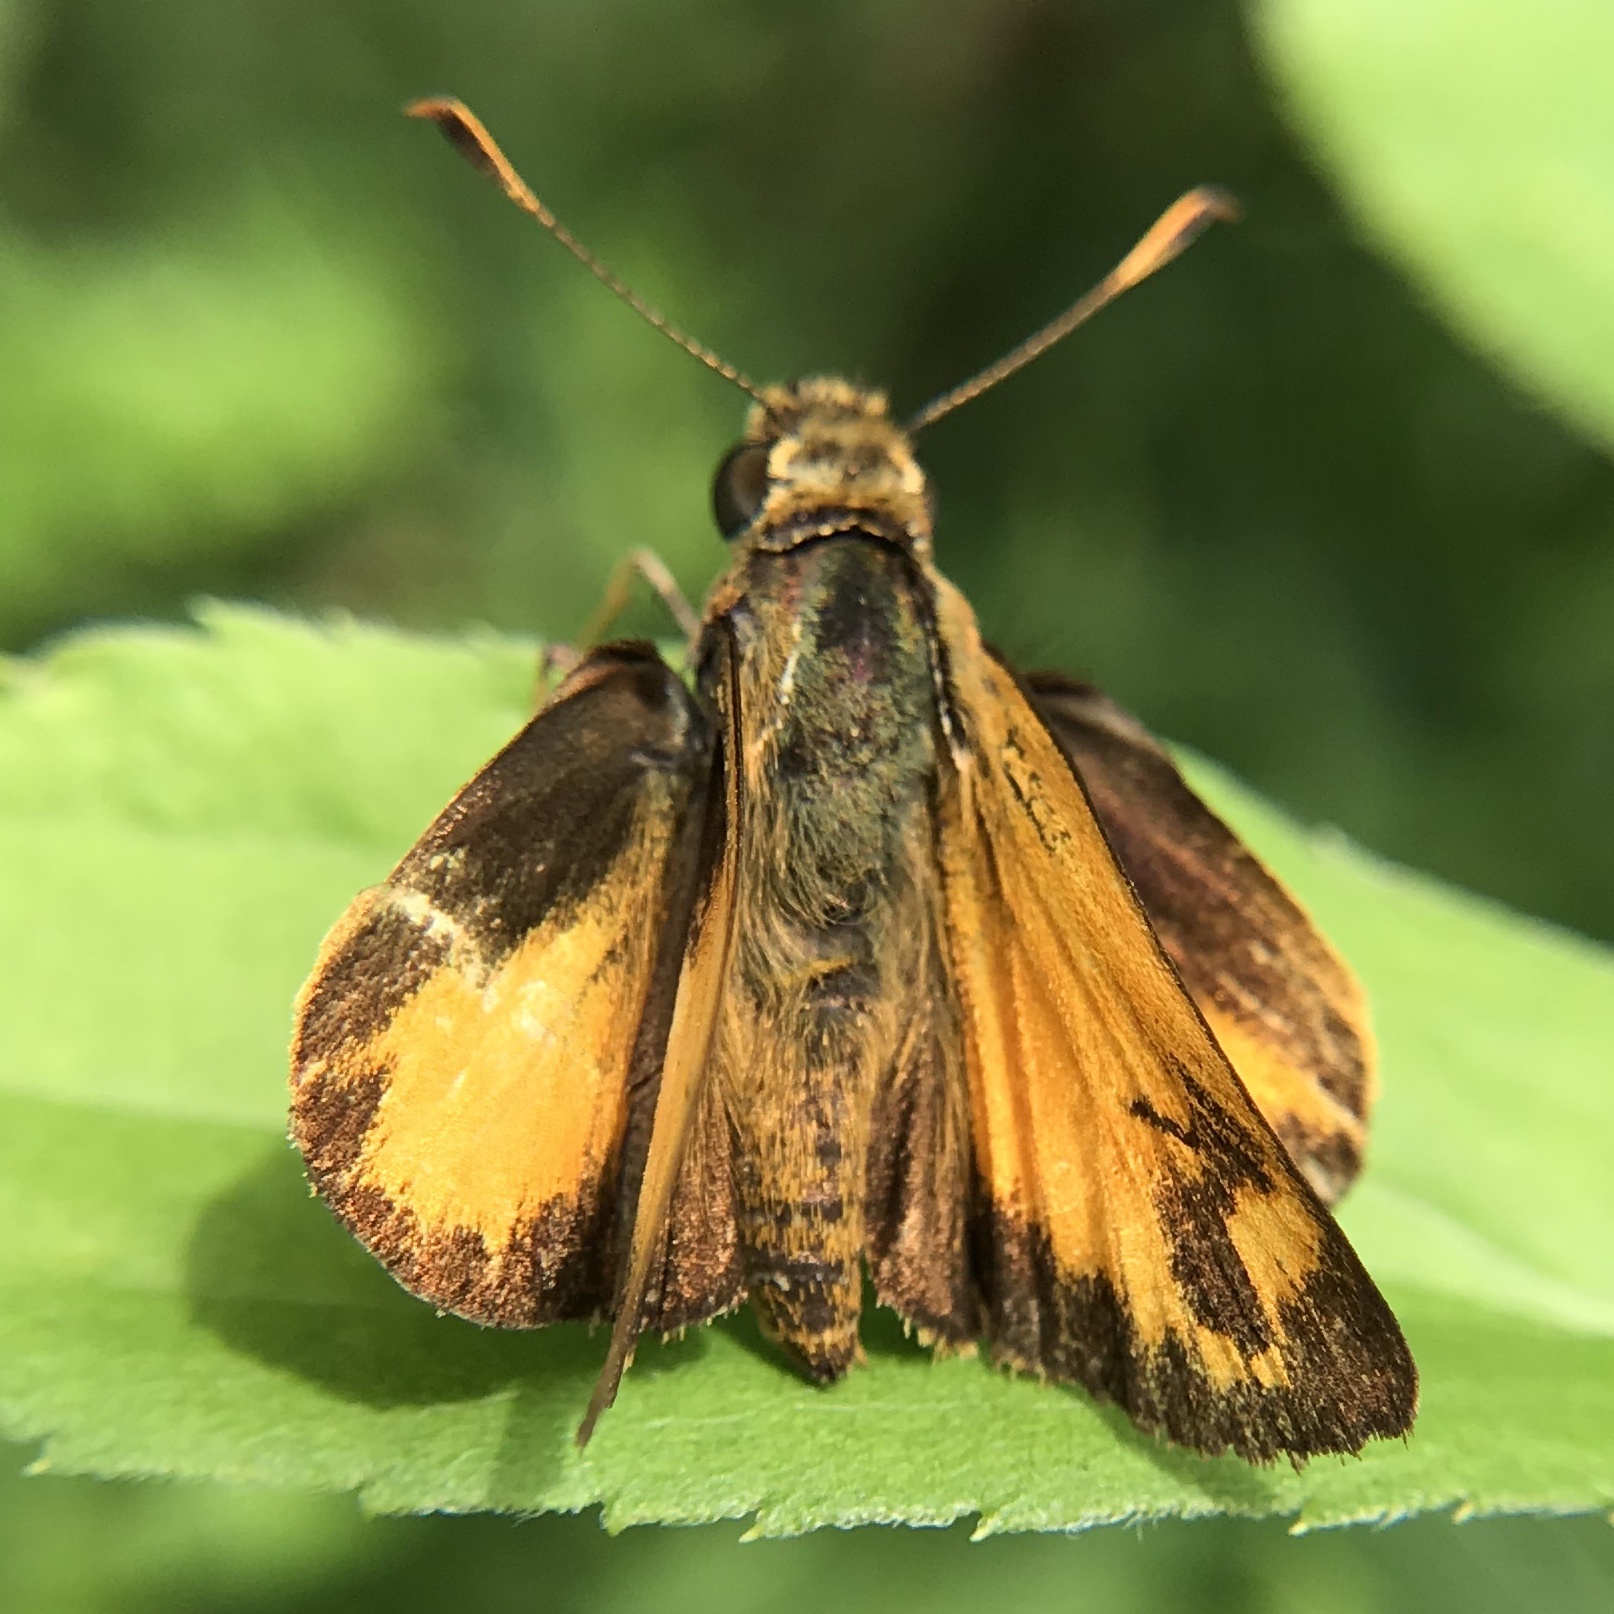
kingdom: Animalia
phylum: Arthropoda
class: Insecta
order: Lepidoptera
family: Hesperiidae
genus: Lon
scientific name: Lon zabulon
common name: Zabulon skipper
